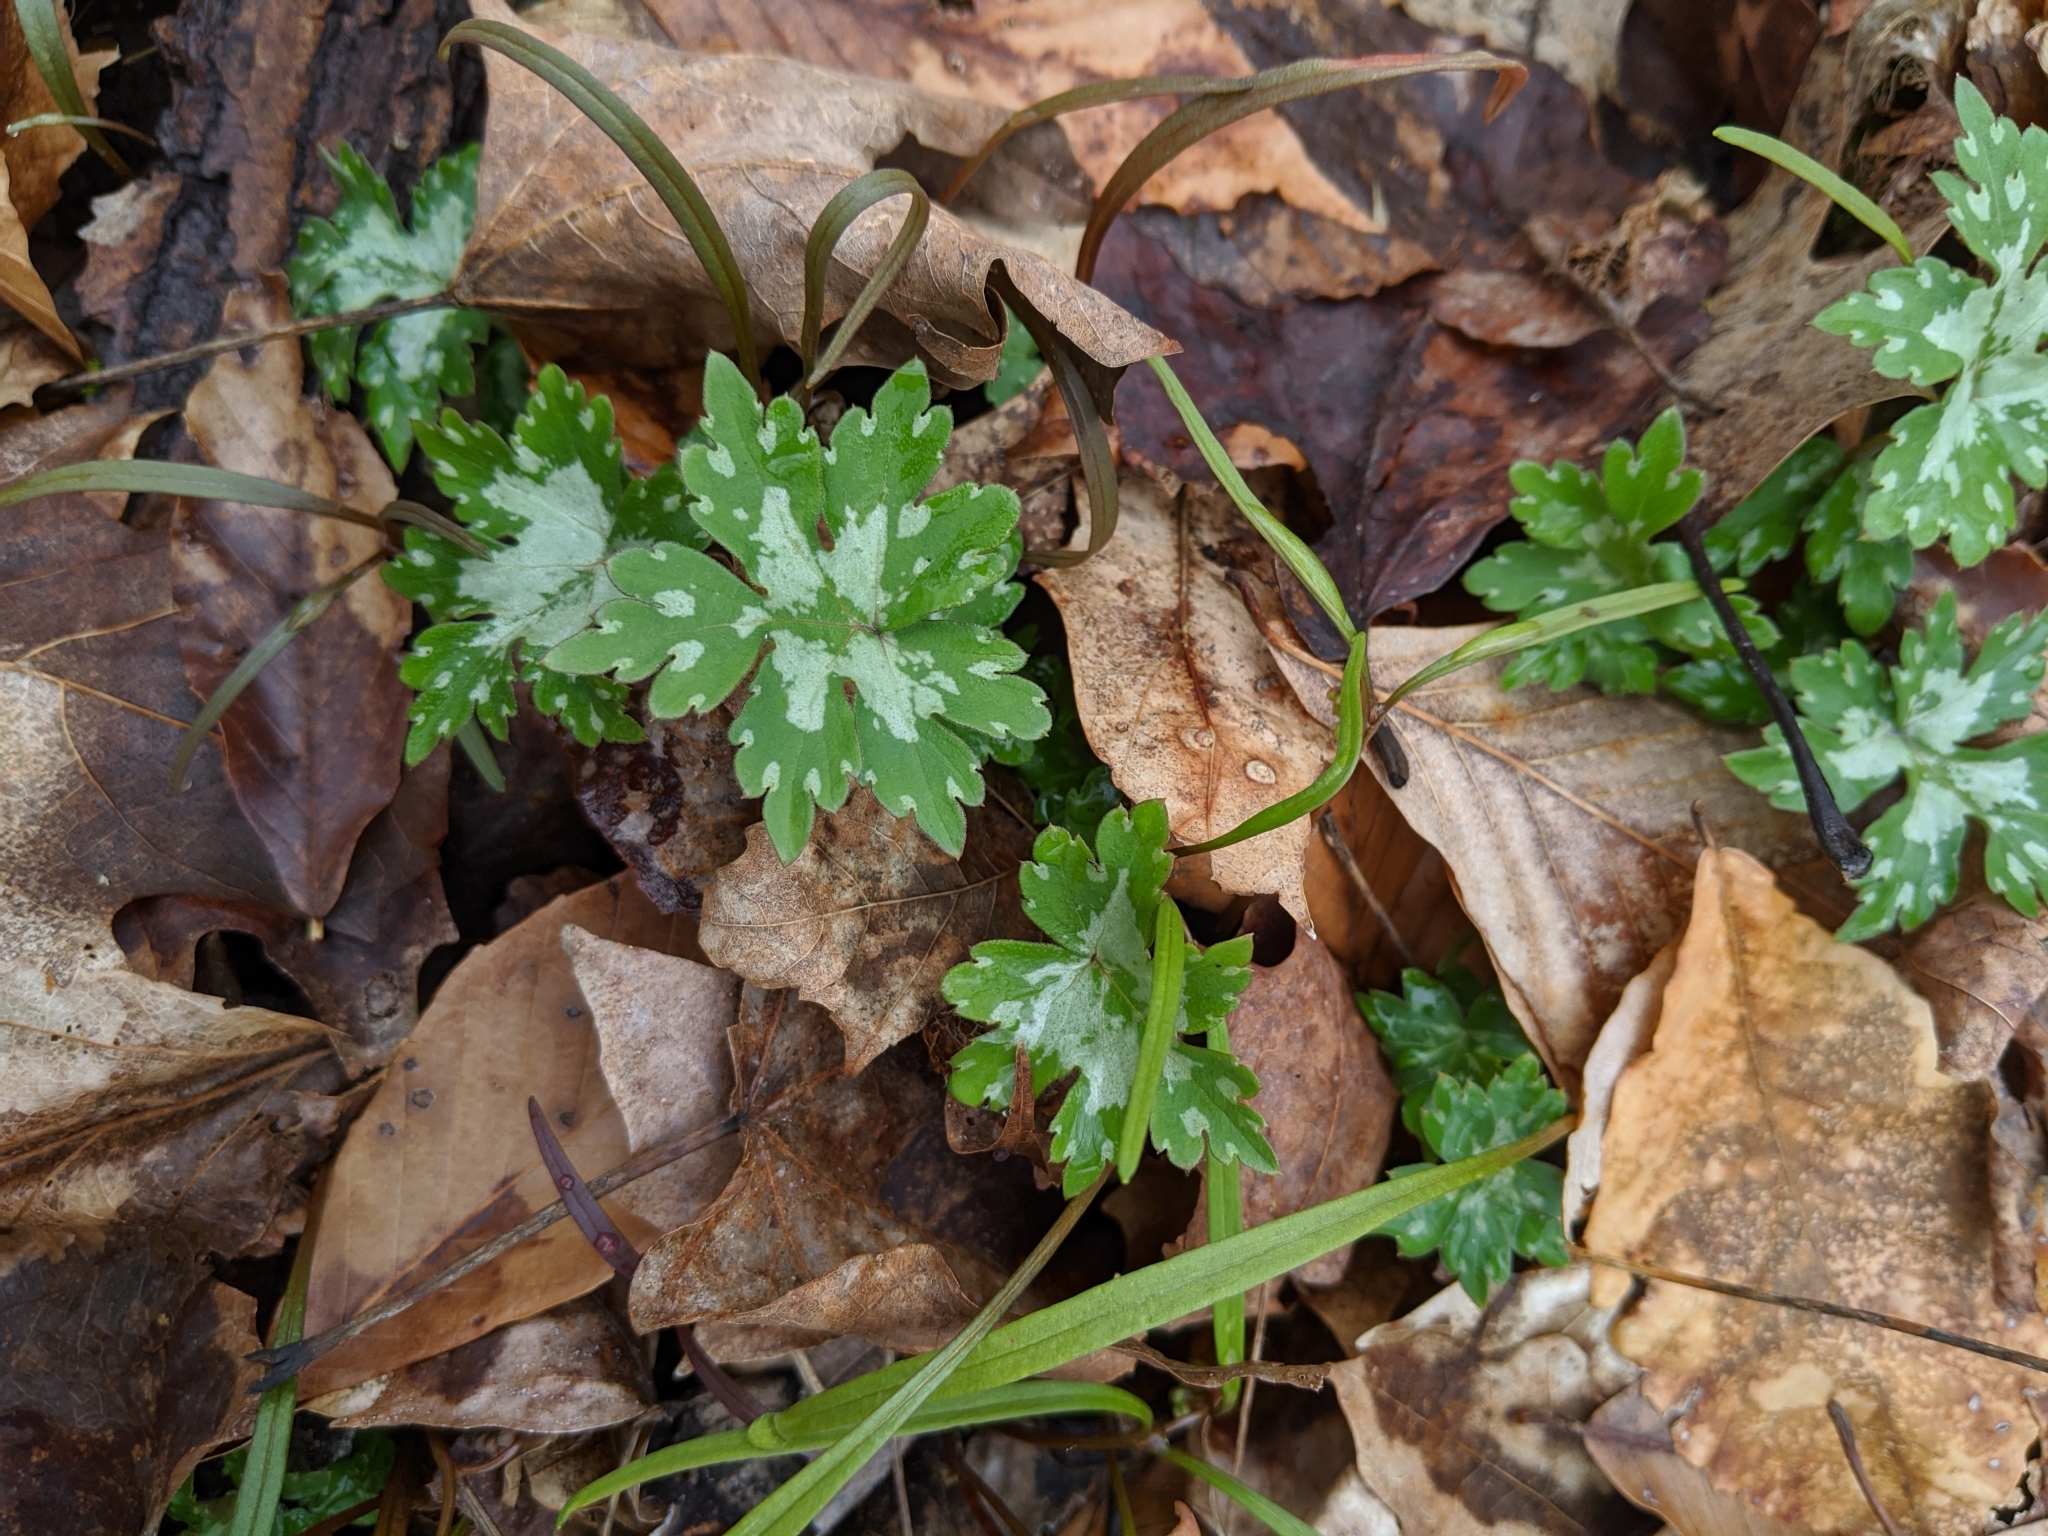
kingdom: Plantae
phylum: Tracheophyta
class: Magnoliopsida
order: Boraginales
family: Hydrophyllaceae
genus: Hydrophyllum
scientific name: Hydrophyllum canadense
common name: Canada waterleaf
